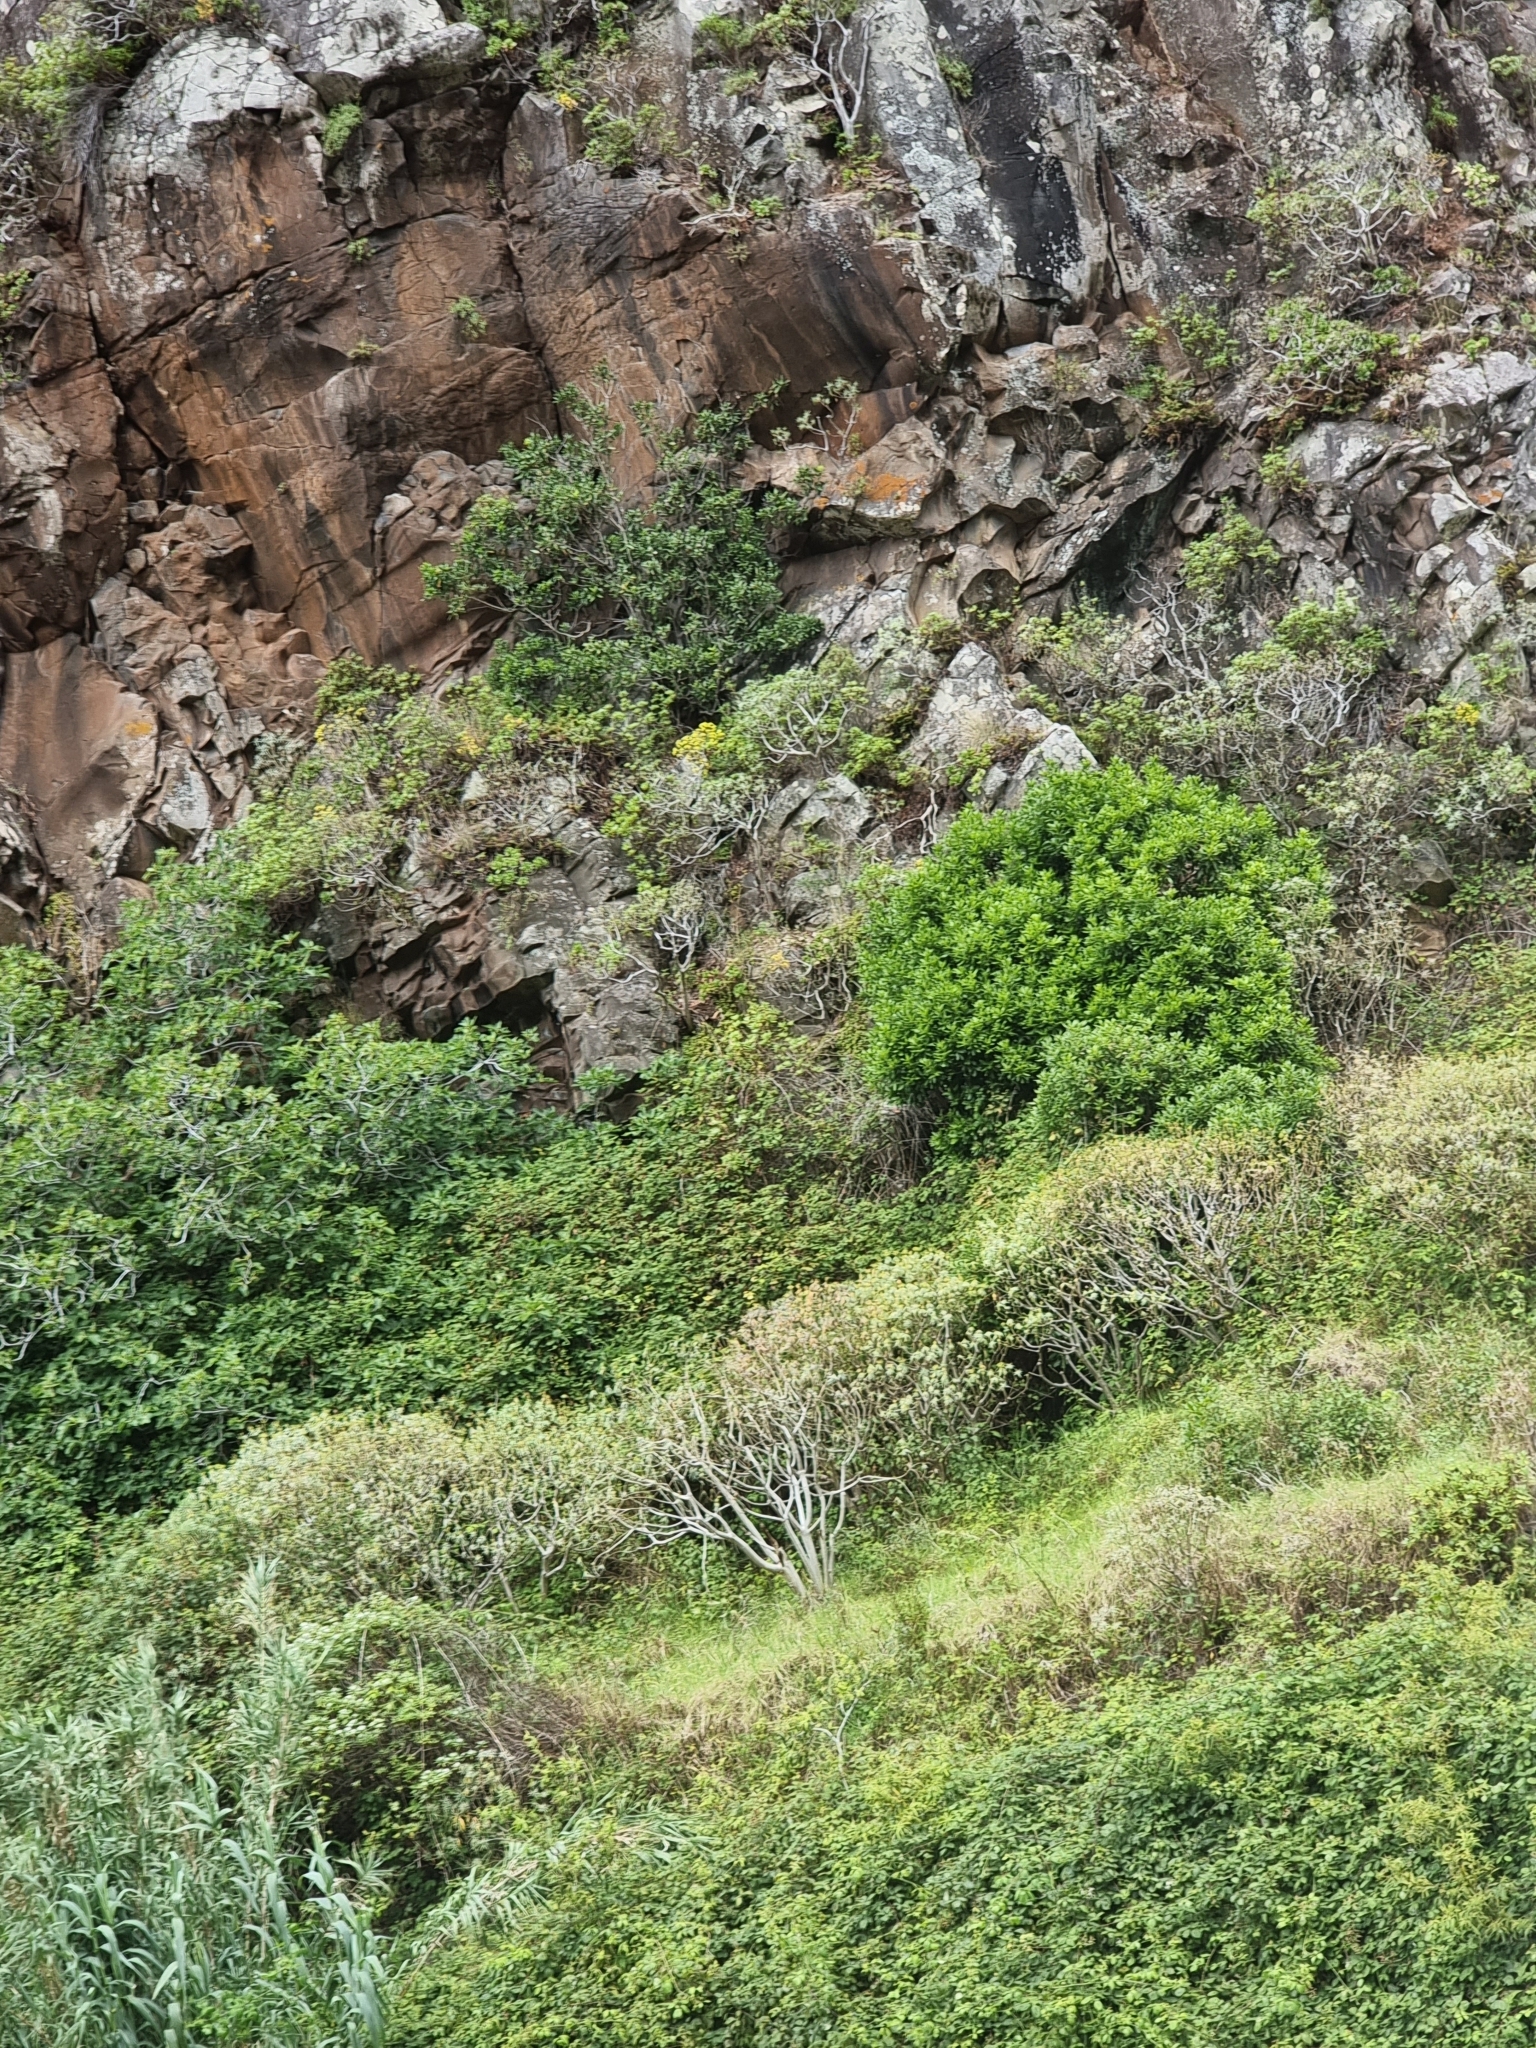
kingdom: Plantae
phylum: Tracheophyta
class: Magnoliopsida
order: Malpighiales
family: Euphorbiaceae
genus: Euphorbia
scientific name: Euphorbia piscatoria
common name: Fish-stunning spurge
